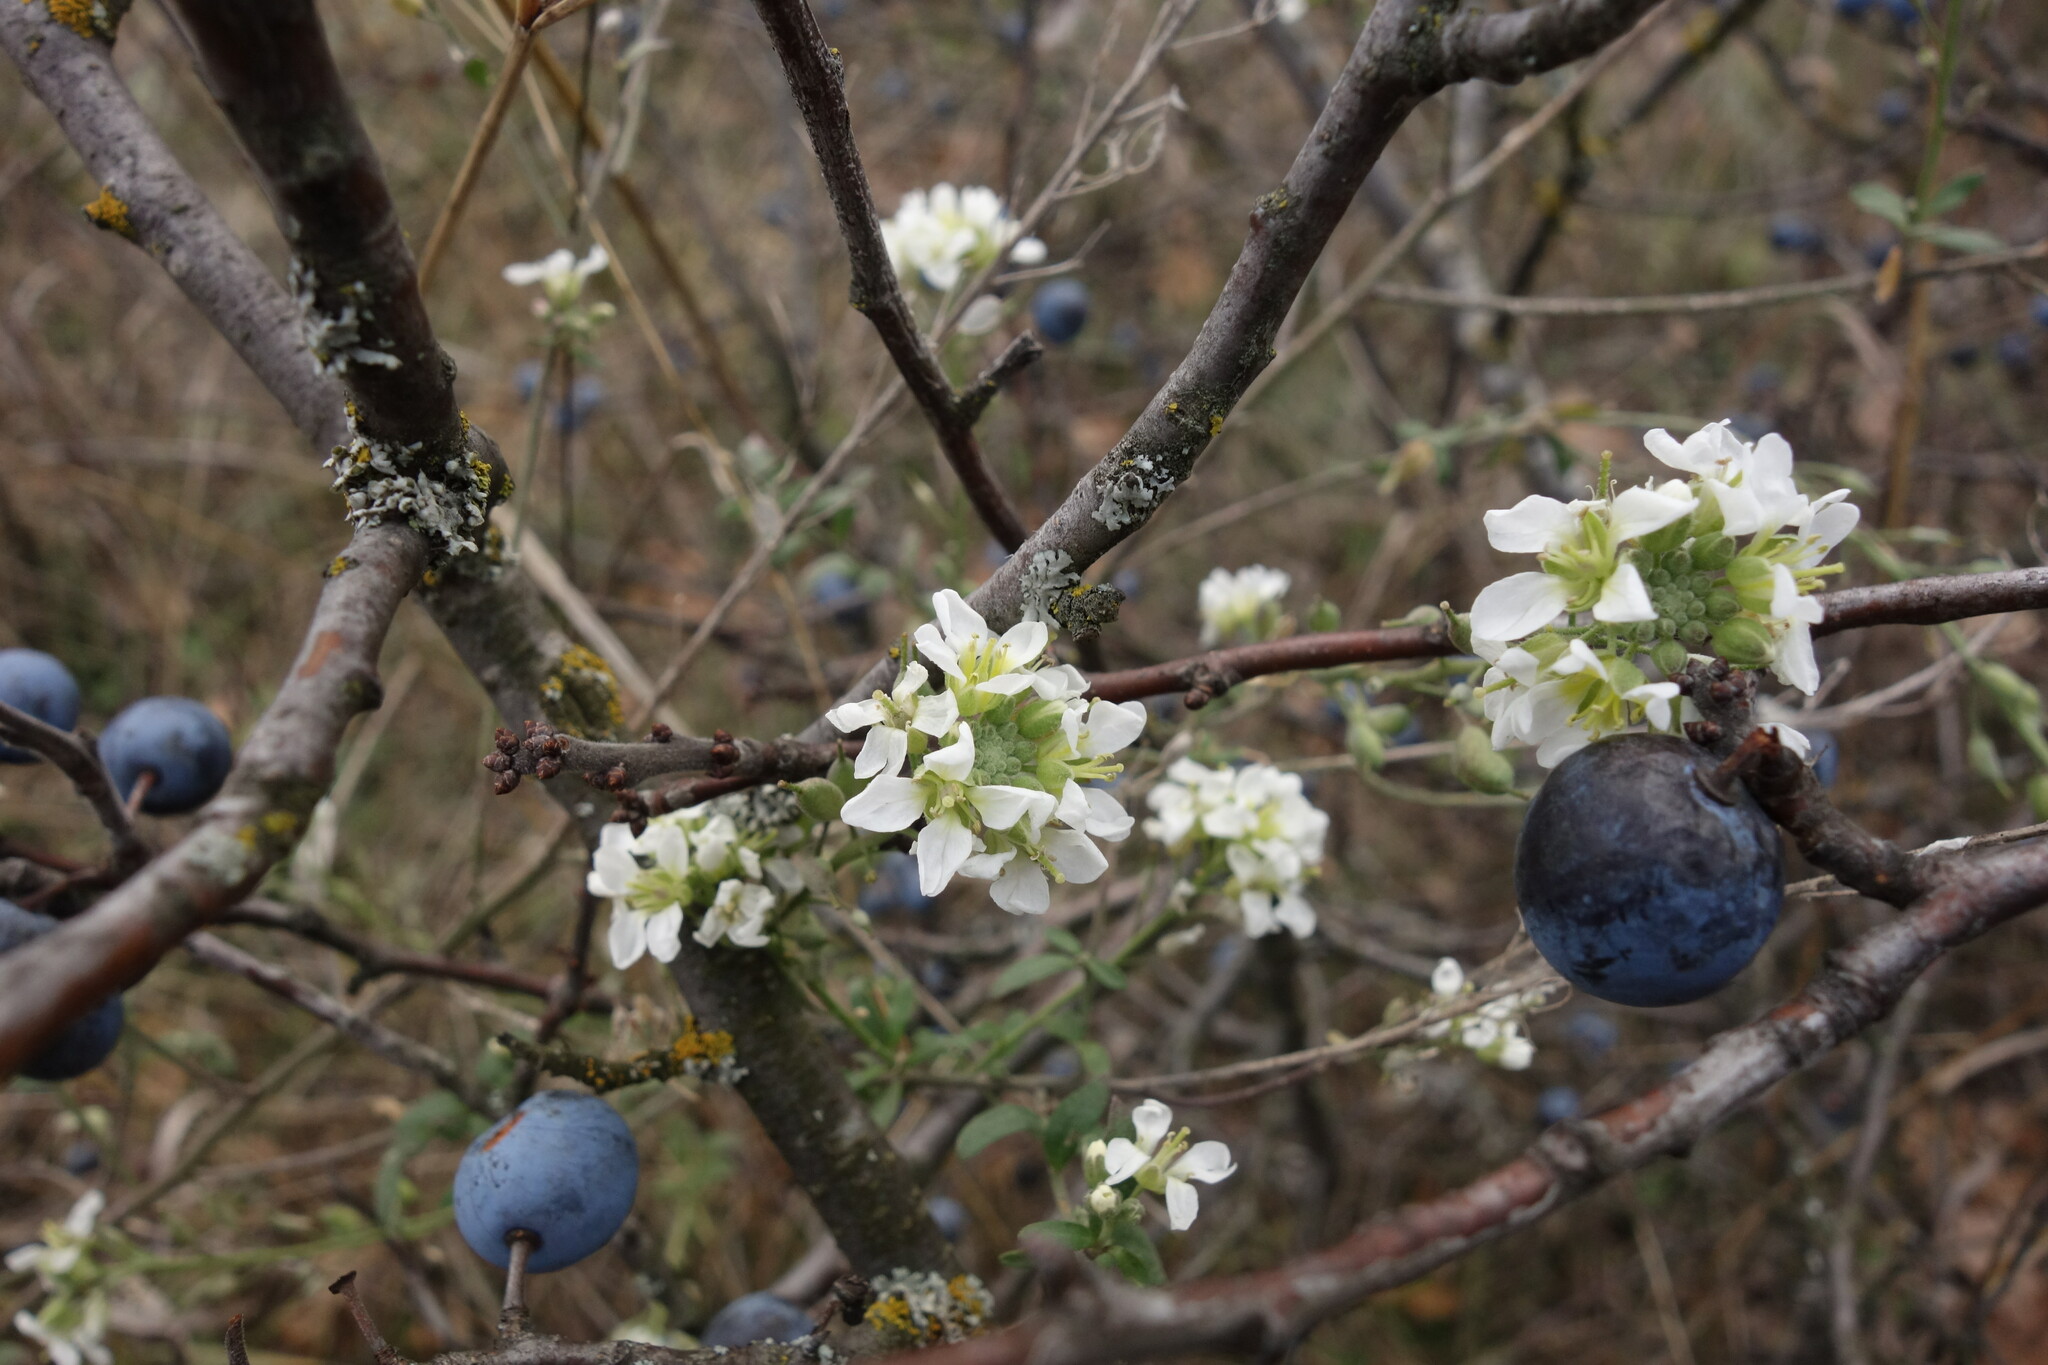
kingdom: Plantae
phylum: Tracheophyta
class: Magnoliopsida
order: Brassicales
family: Brassicaceae
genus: Berteroa
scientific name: Berteroa incana
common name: Hoary alison
